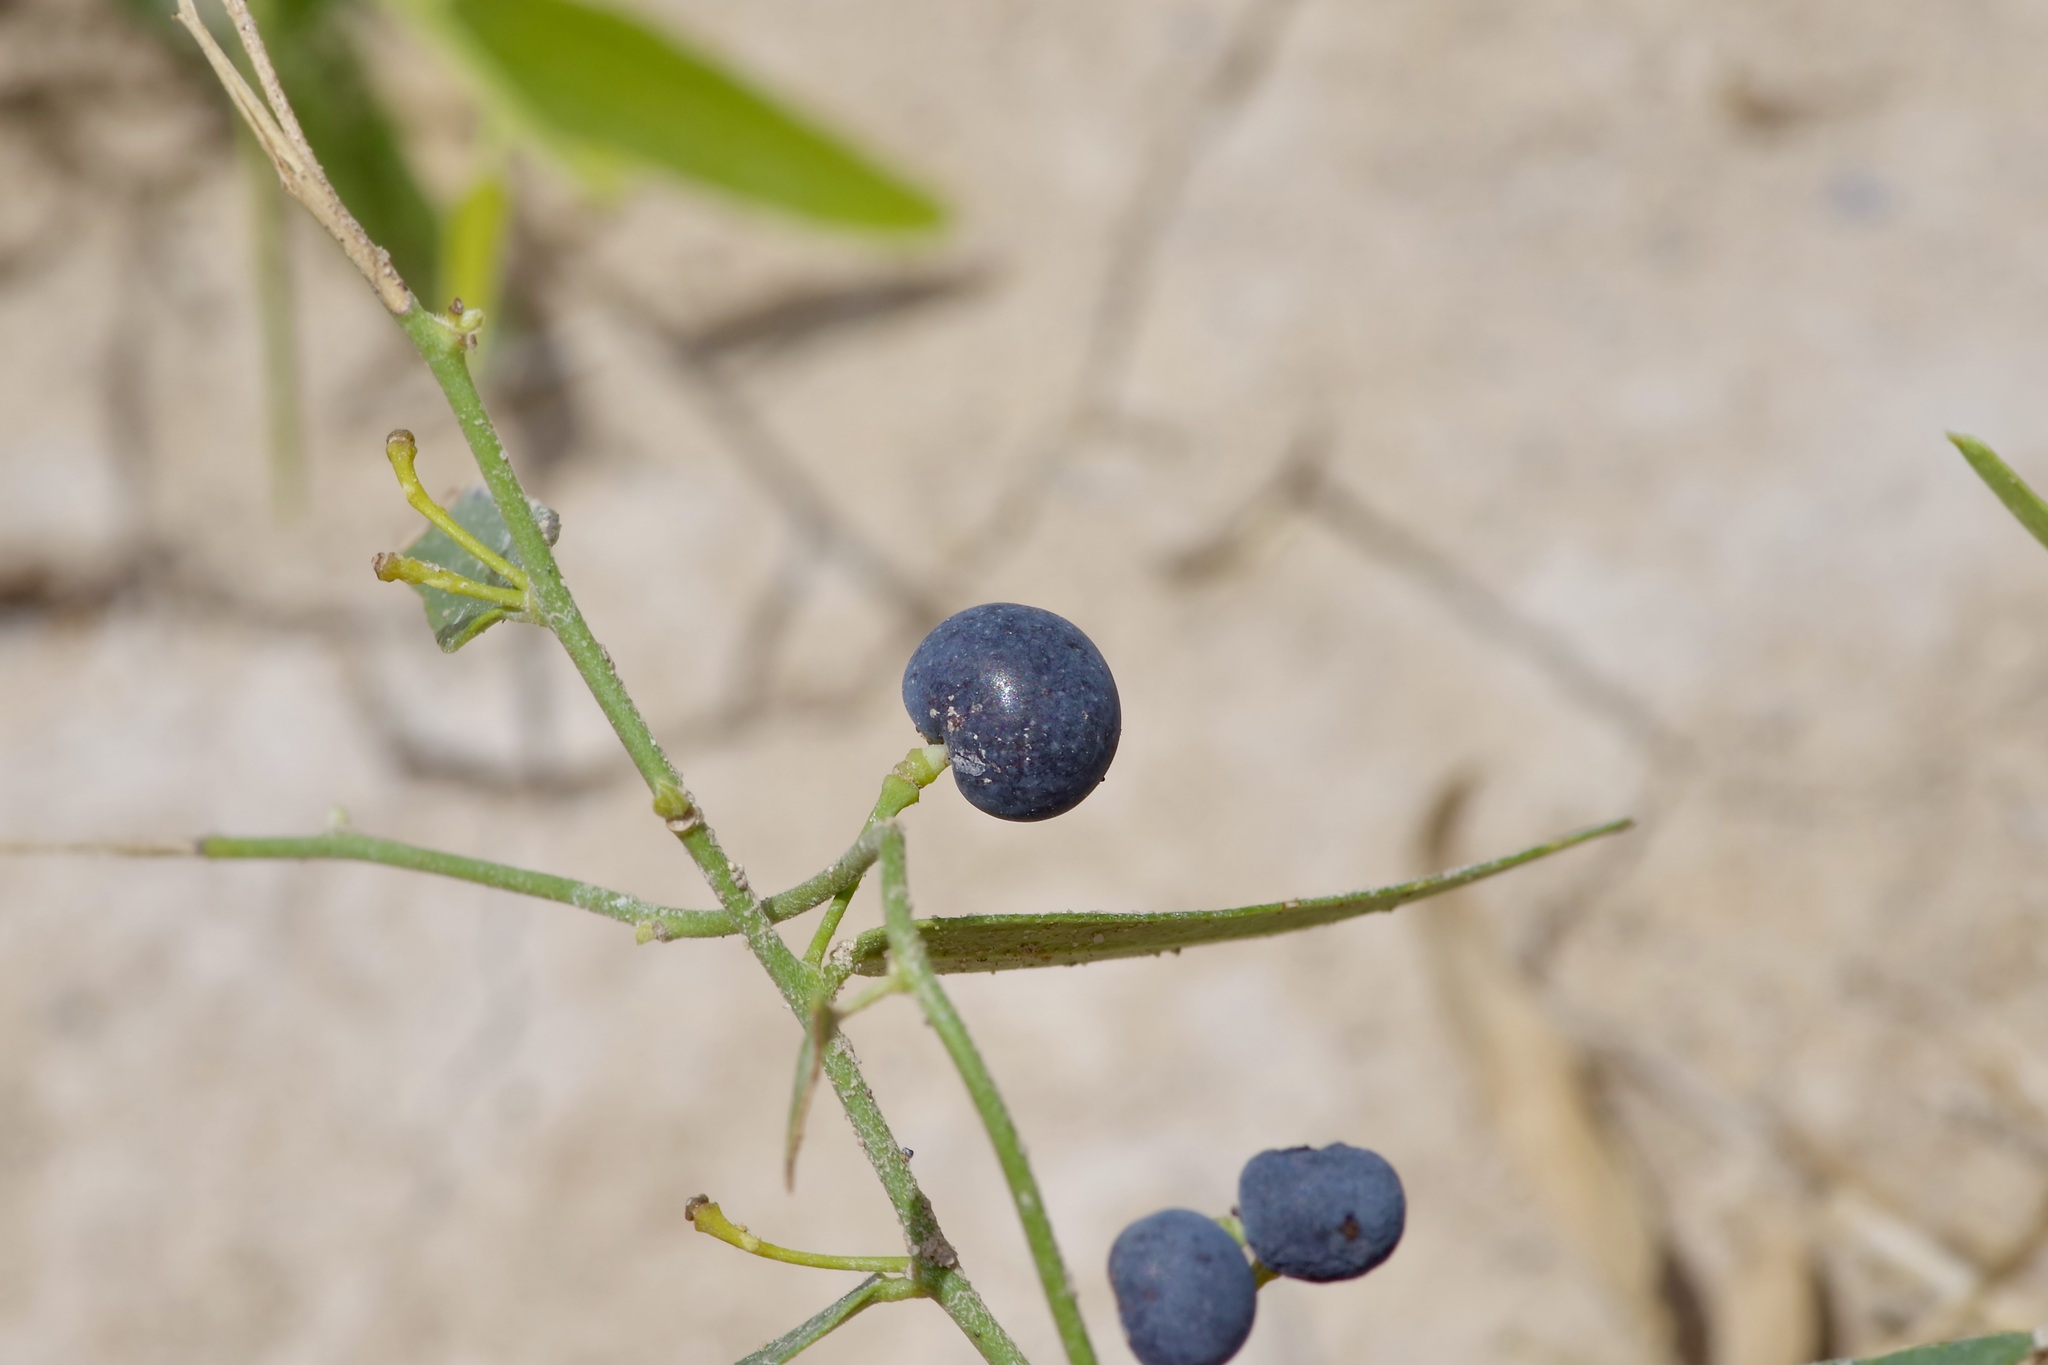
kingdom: Plantae
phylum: Tracheophyta
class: Magnoliopsida
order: Ranunculales
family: Menispermaceae
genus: Cocculus
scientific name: Cocculus diversifolius
